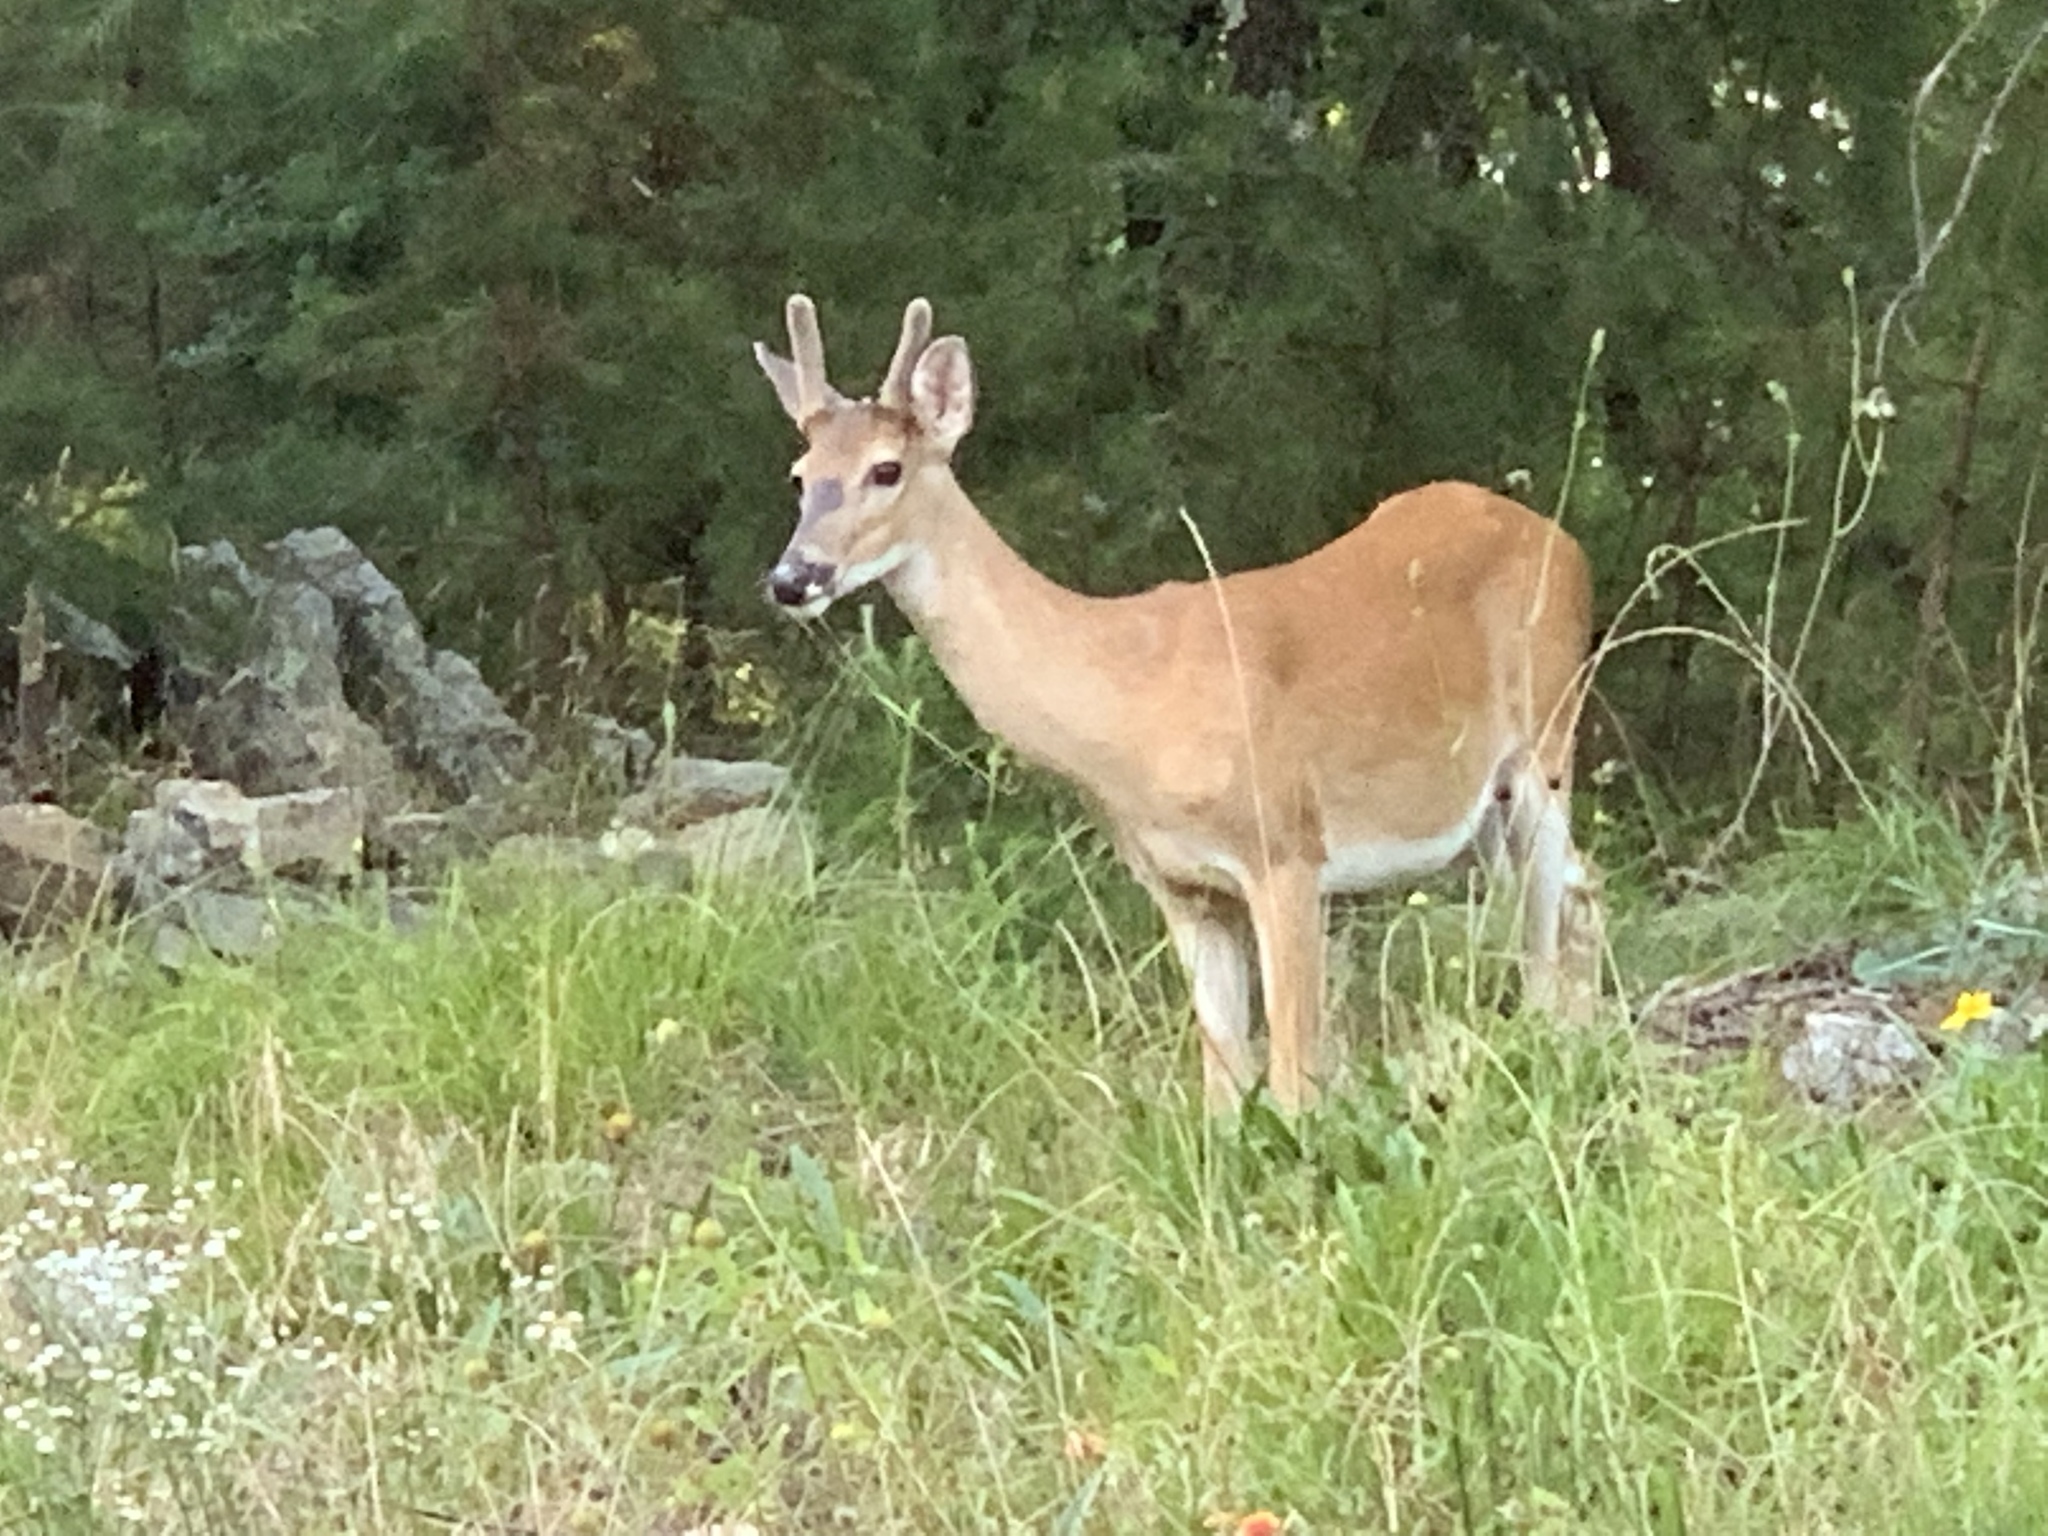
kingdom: Animalia
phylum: Chordata
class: Mammalia
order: Artiodactyla
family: Cervidae
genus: Odocoileus
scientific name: Odocoileus virginianus
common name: White-tailed deer
